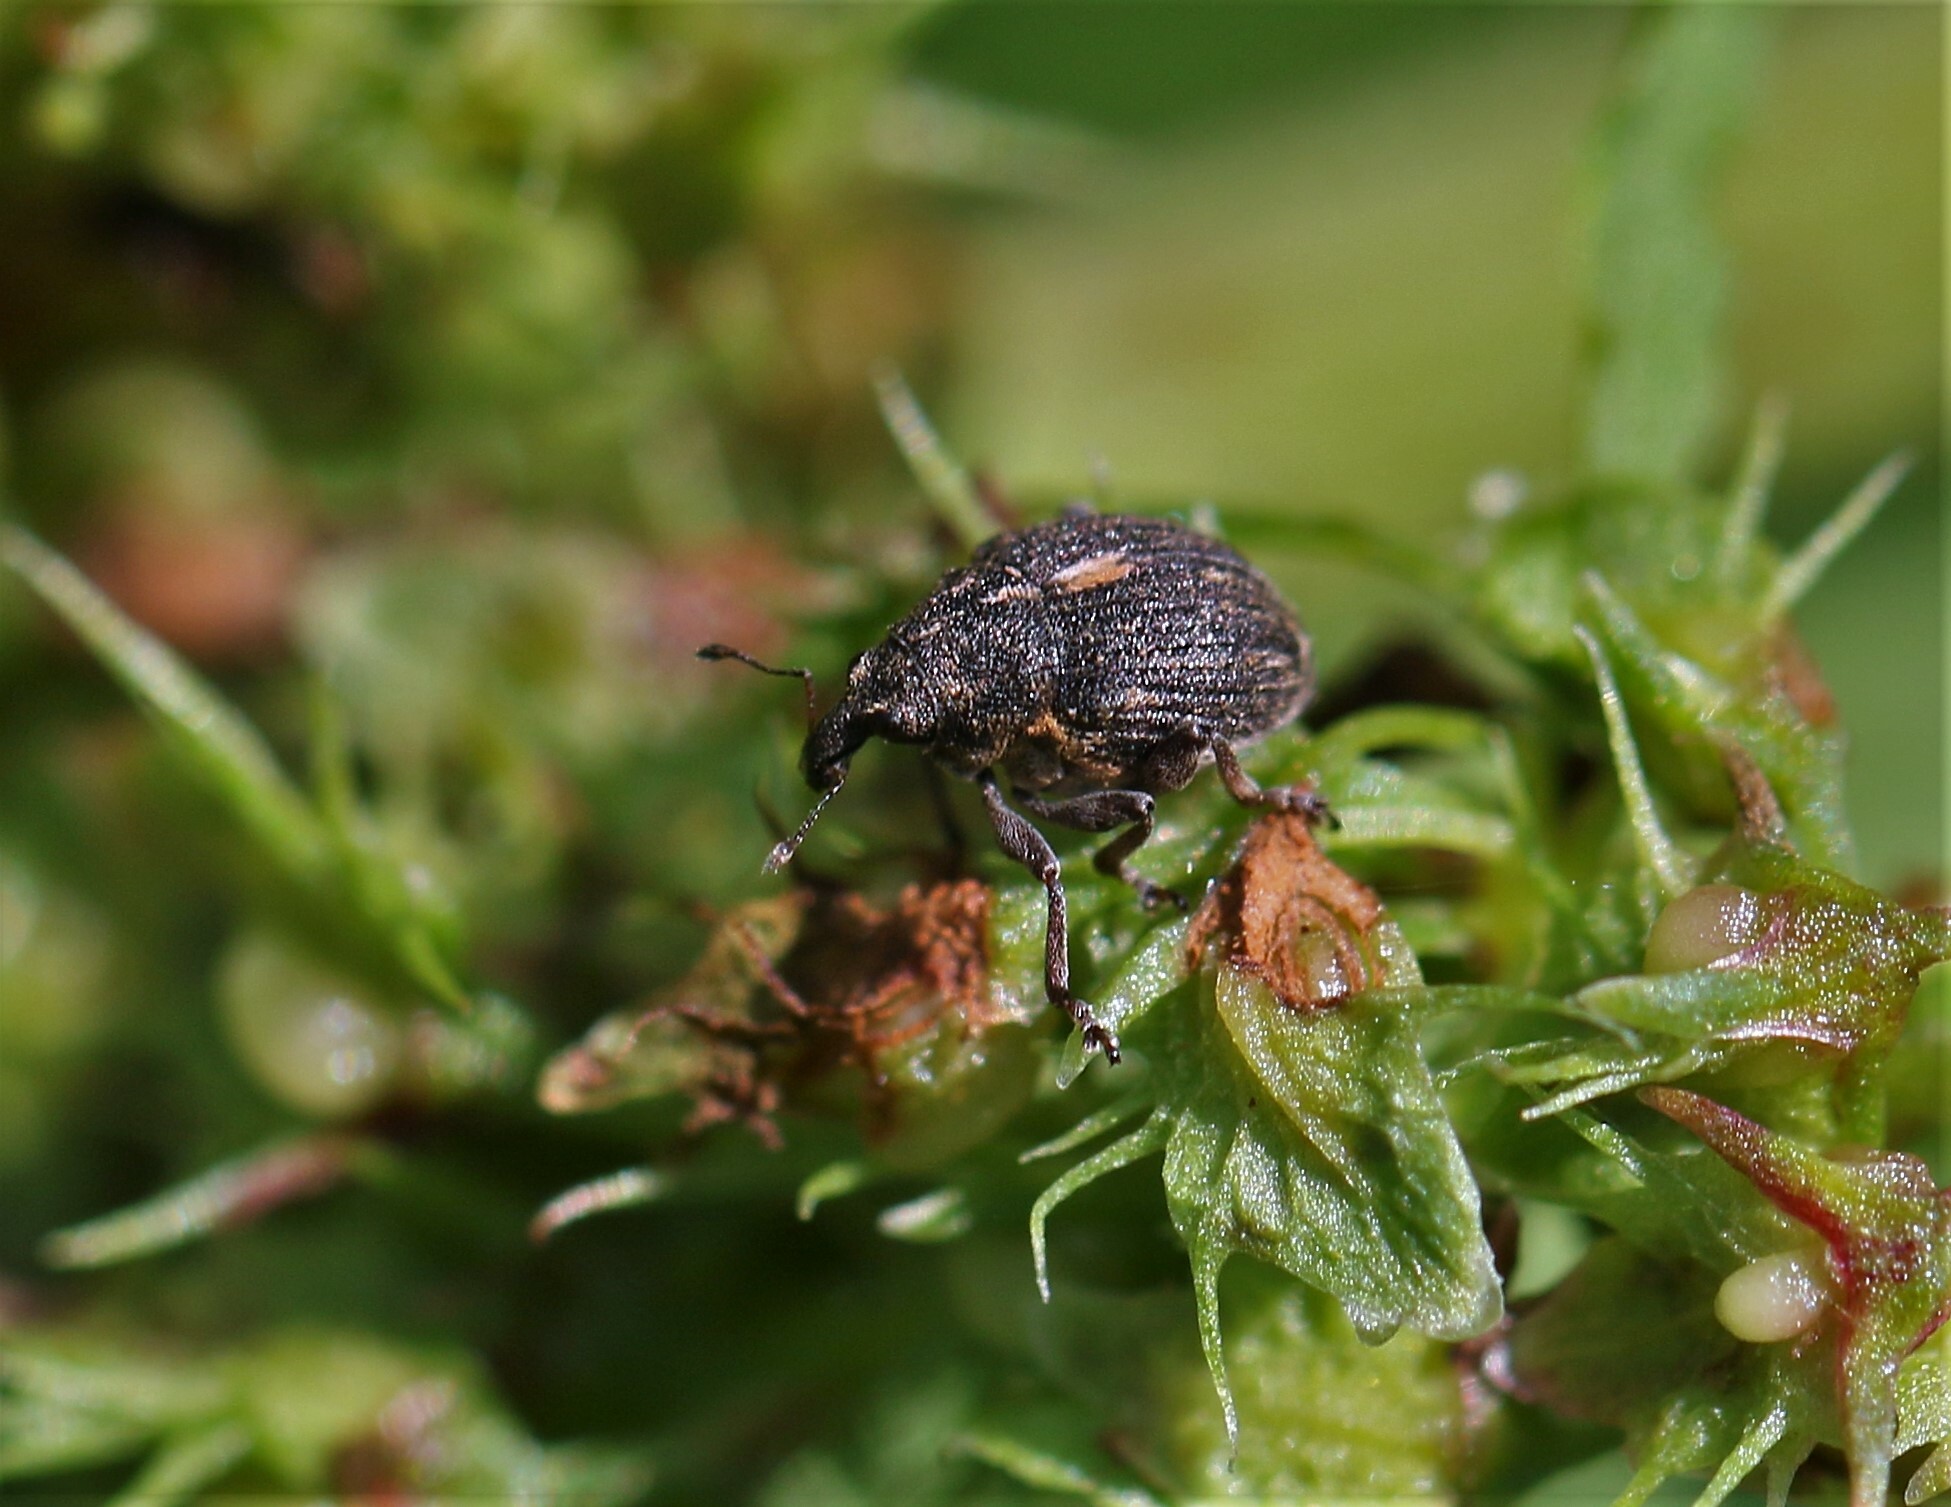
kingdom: Animalia
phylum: Arthropoda
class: Insecta
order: Coleoptera
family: Curculionidae
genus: Rhinoncus
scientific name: Rhinoncus leucostigma
